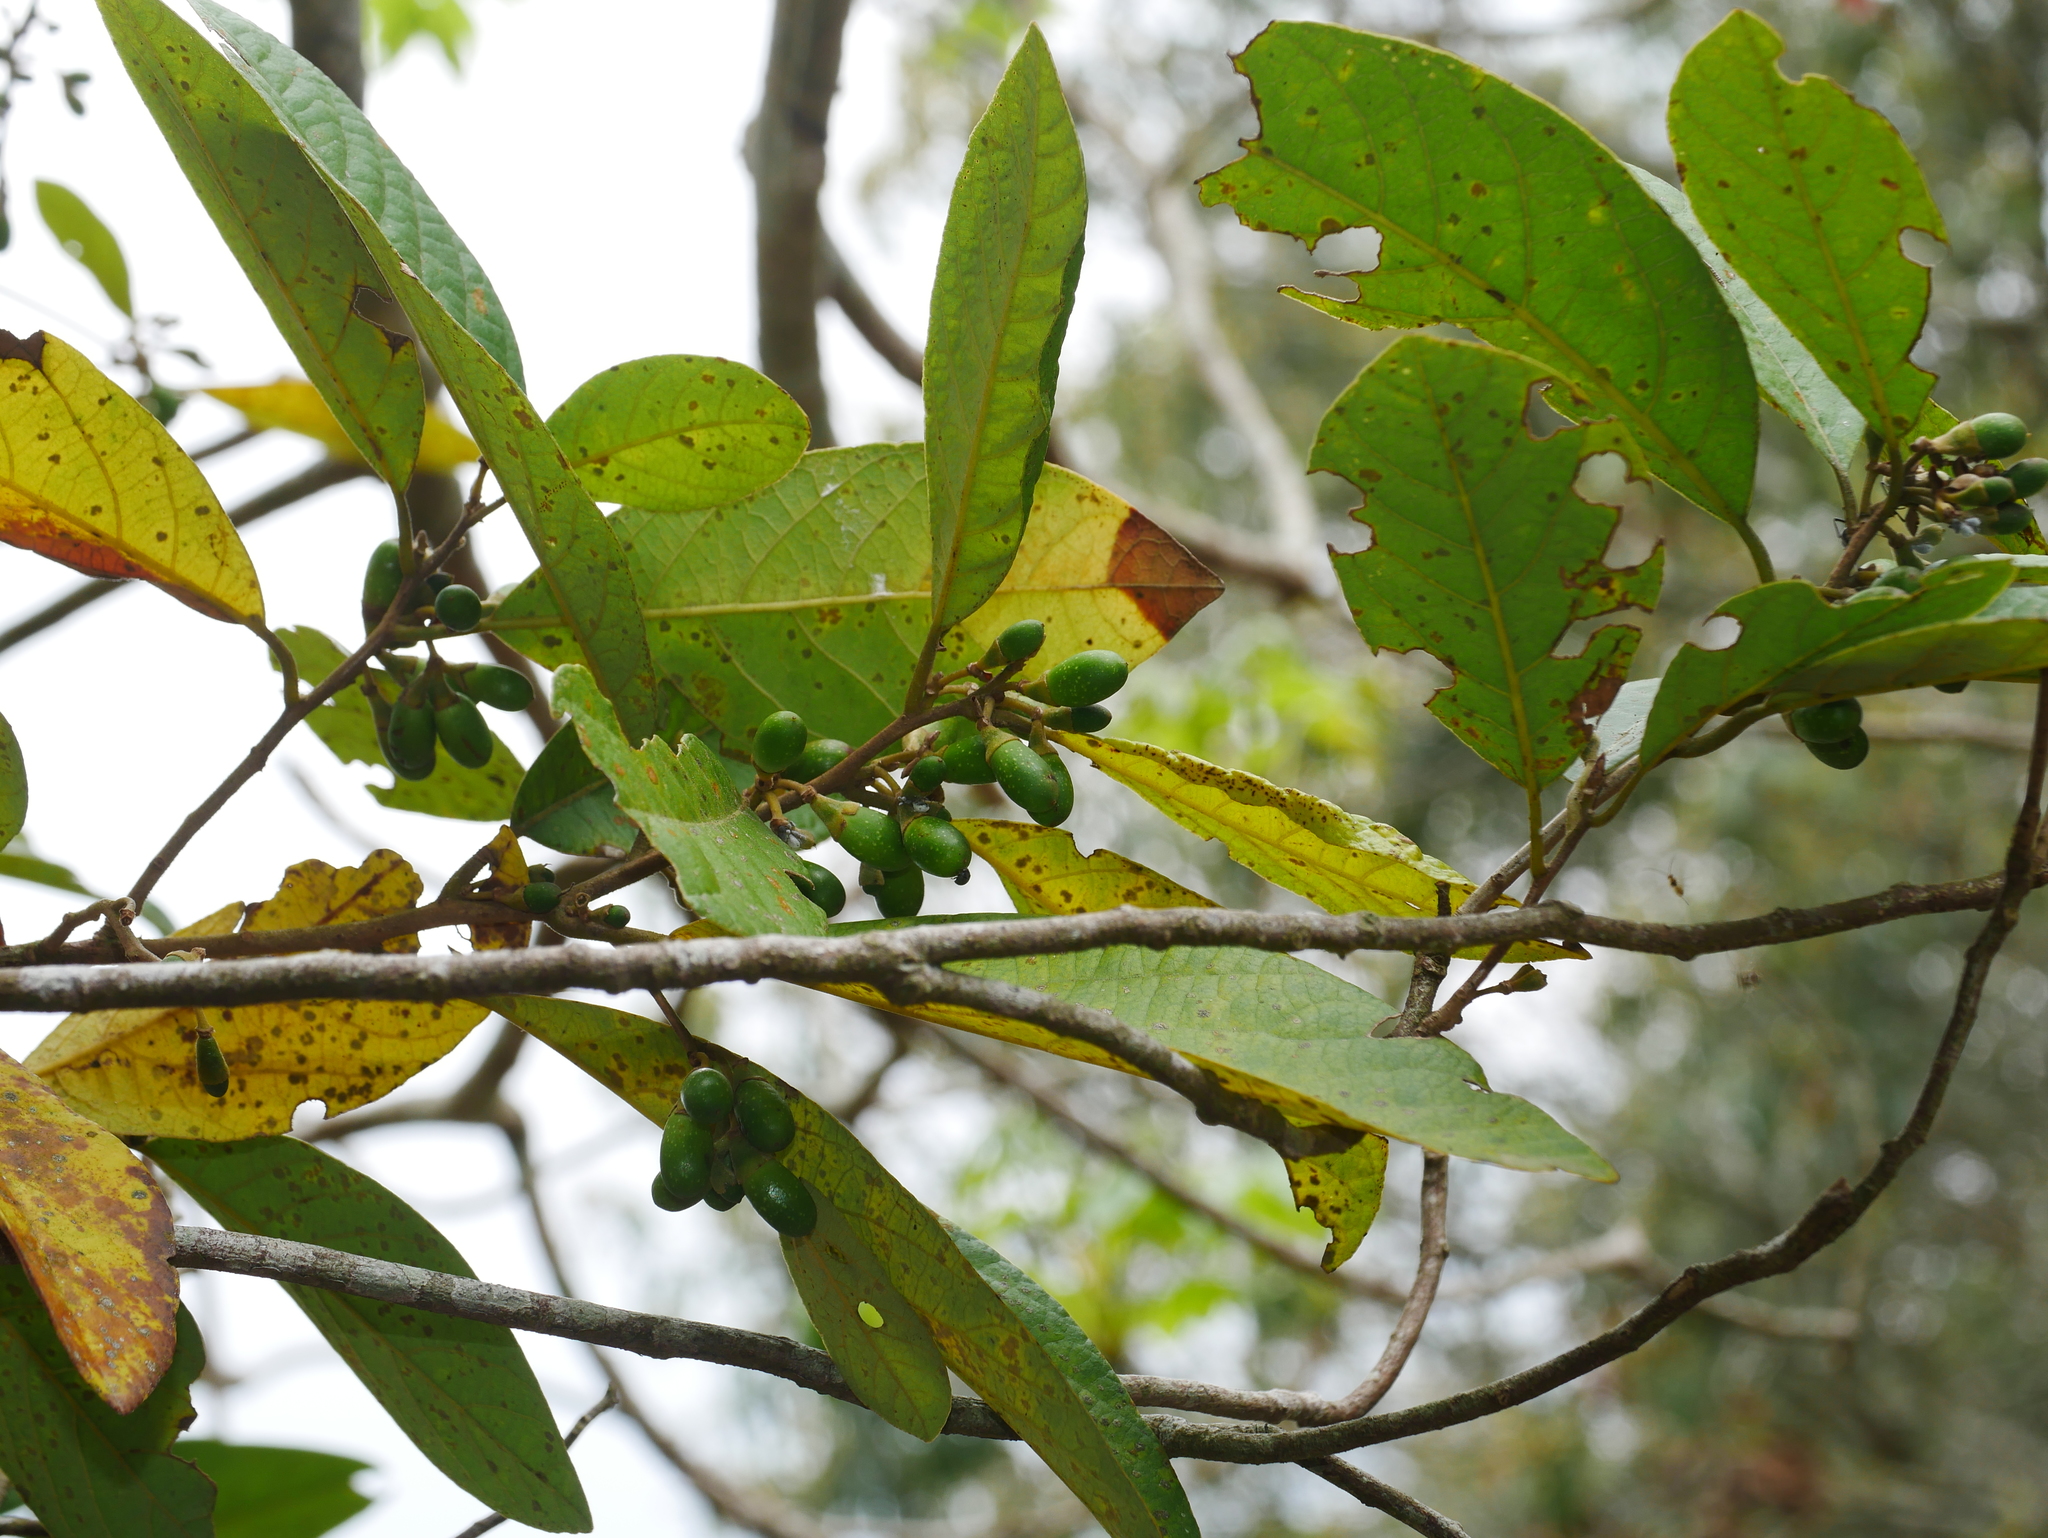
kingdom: Plantae
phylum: Tracheophyta
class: Magnoliopsida
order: Laurales
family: Lauraceae
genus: Litsea
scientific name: Litsea akoensis
